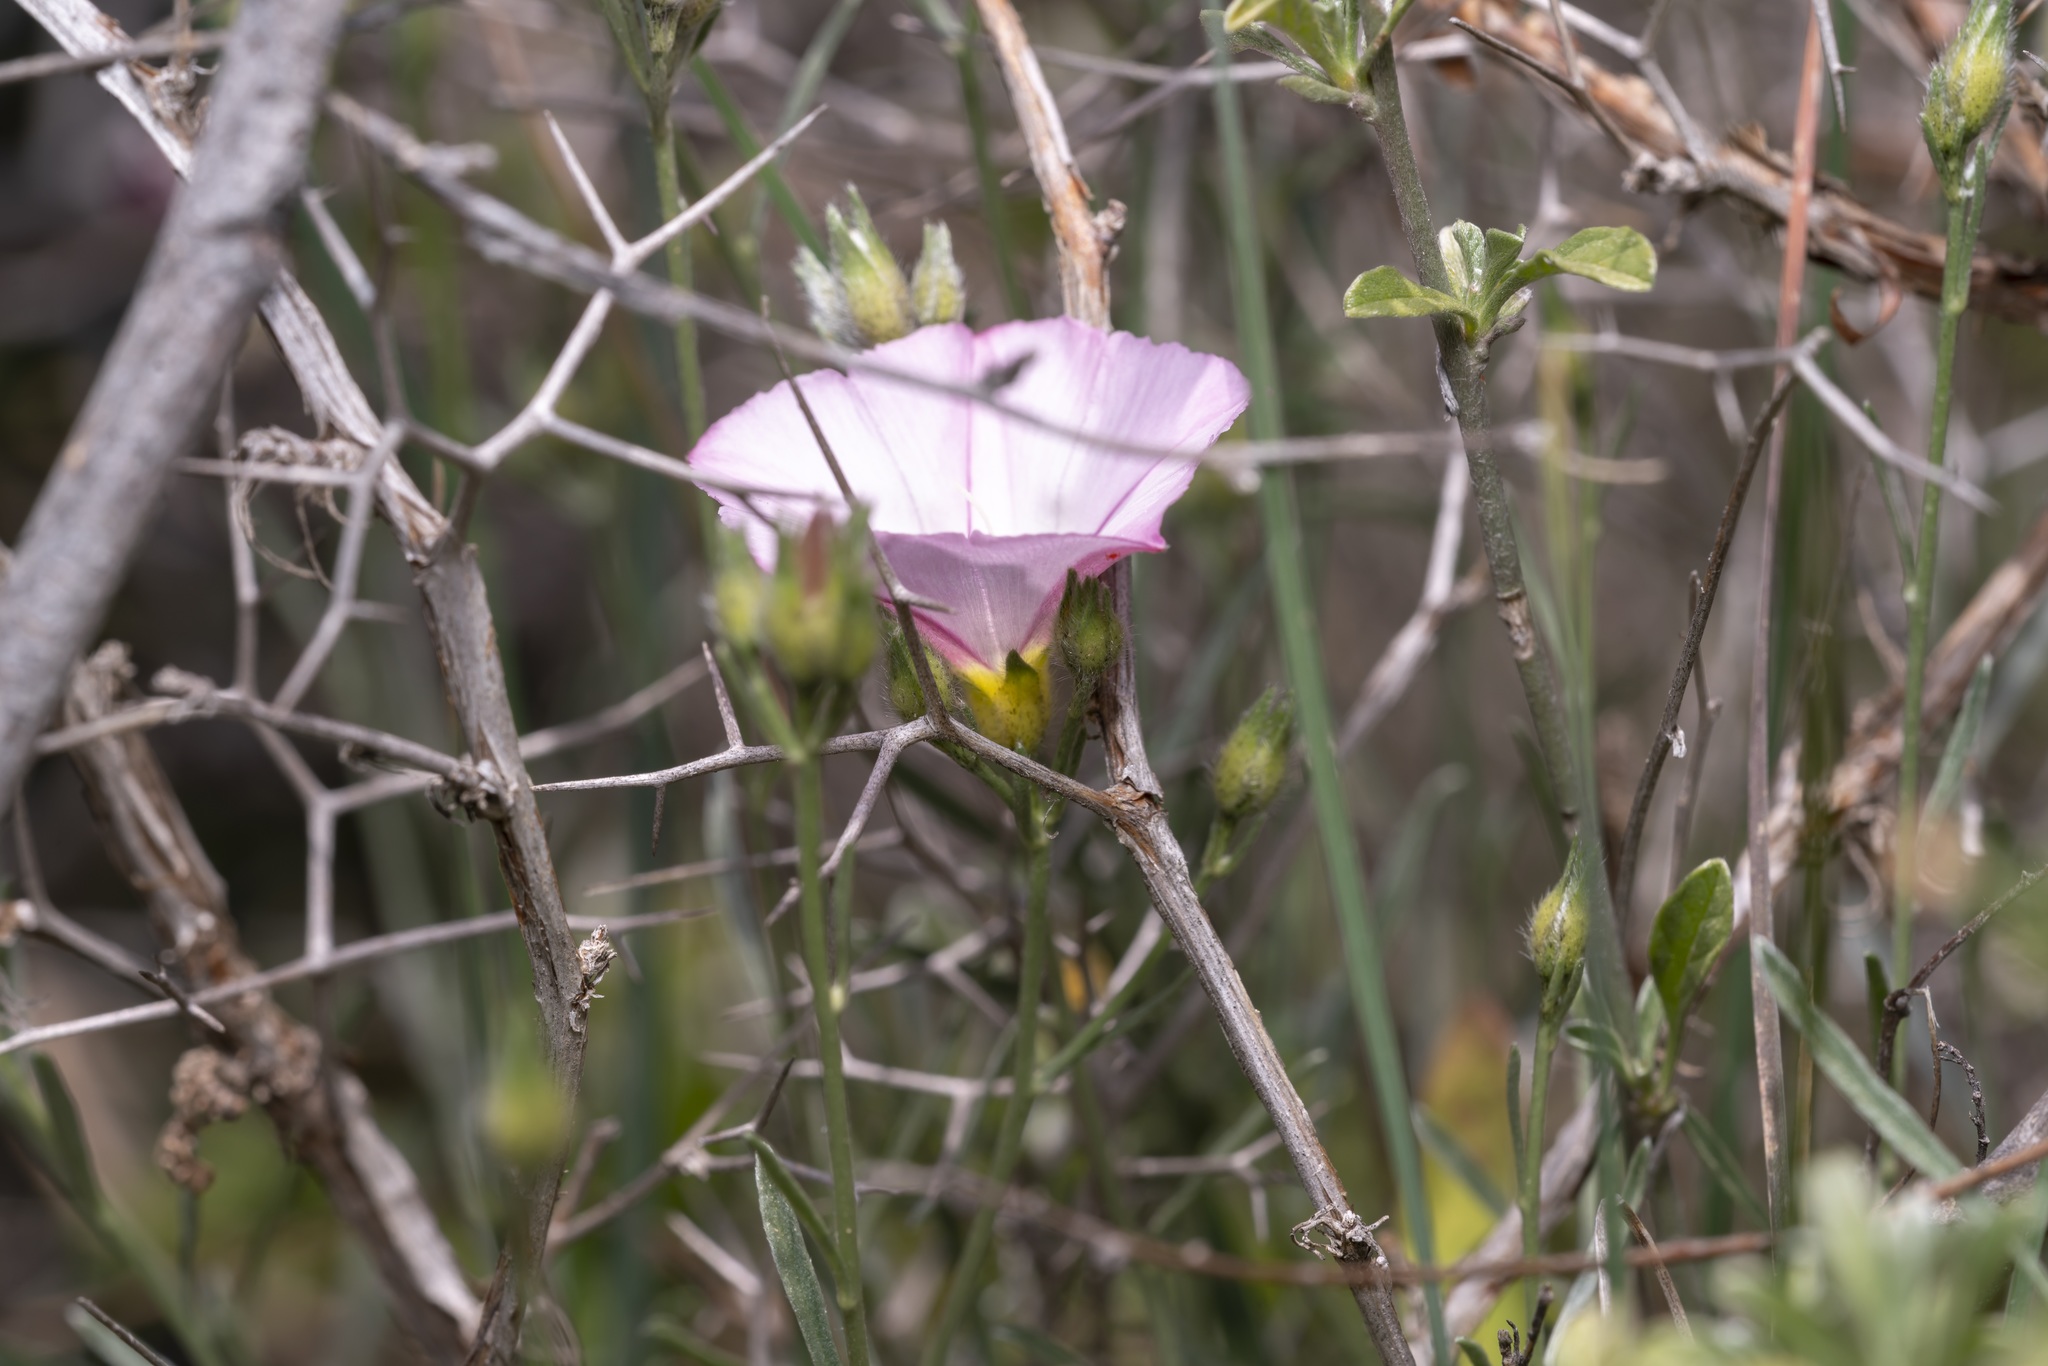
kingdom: Plantae
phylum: Tracheophyta
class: Magnoliopsida
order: Solanales
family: Convolvulaceae
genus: Convolvulus
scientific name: Convolvulus oleifolius
